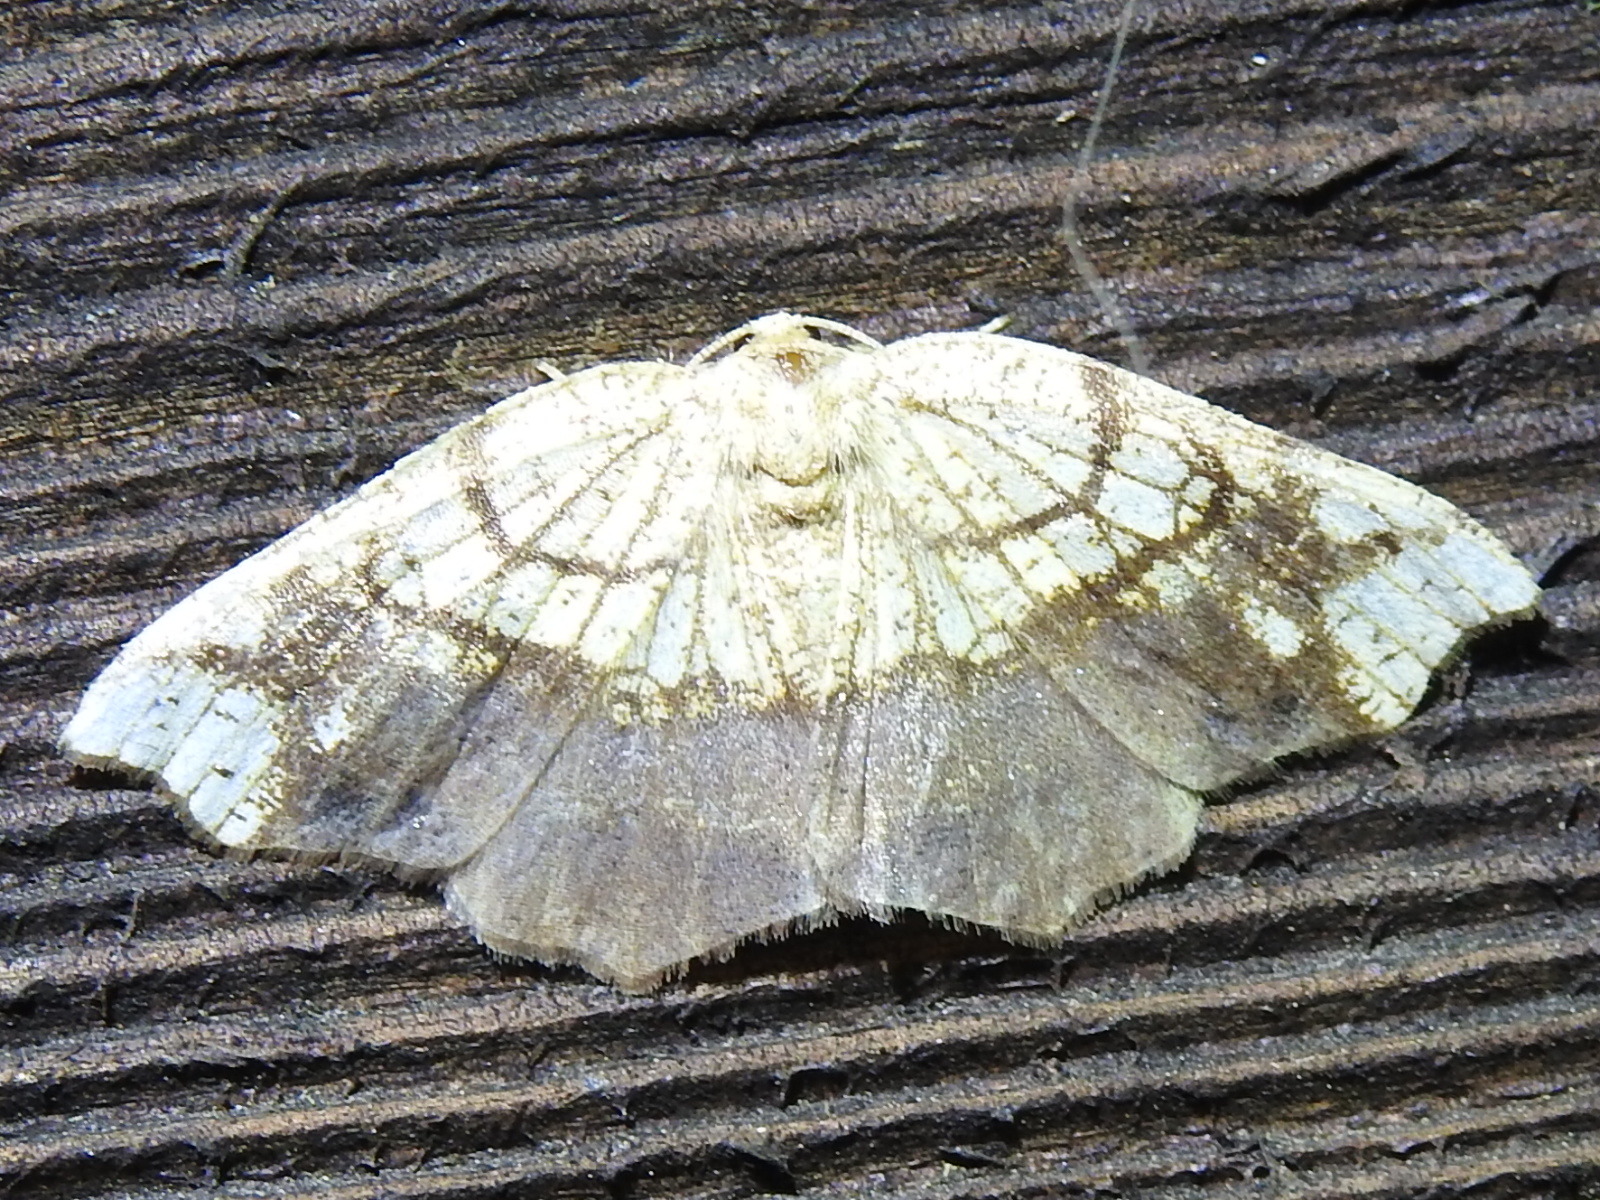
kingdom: Animalia
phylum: Arthropoda
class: Insecta
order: Lepidoptera
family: Geometridae
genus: Nematocampa
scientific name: Nematocampa resistaria
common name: Horned spanworm moth
